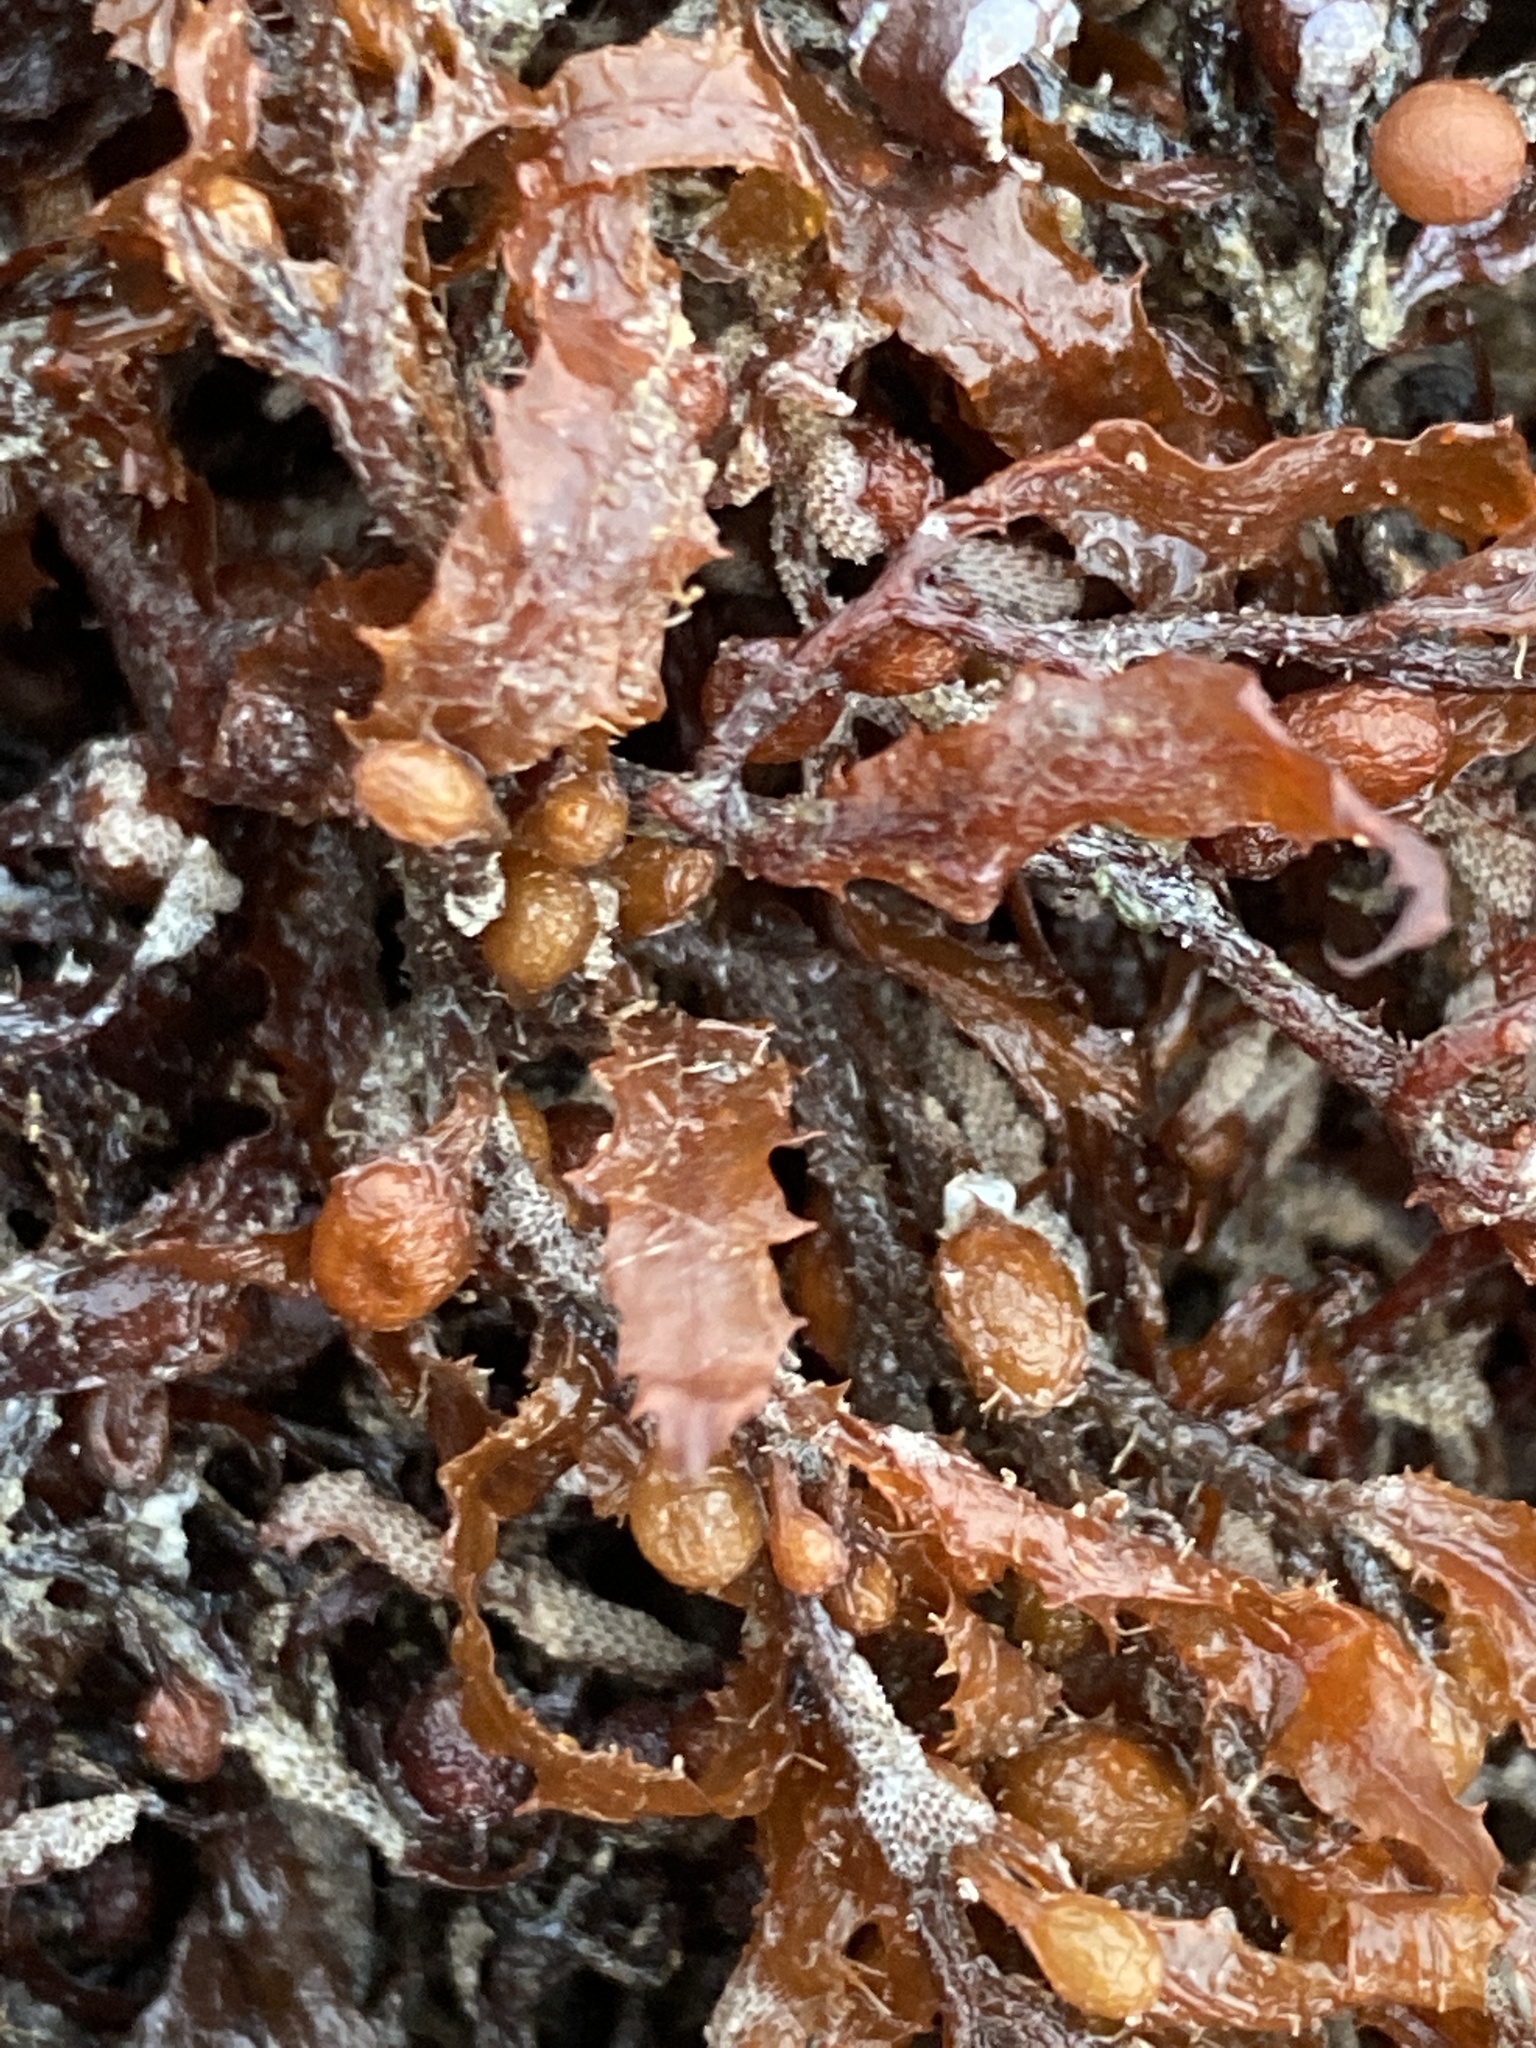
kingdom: Chromista
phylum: Ochrophyta
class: Phaeophyceae
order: Fucales
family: Sargassaceae
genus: Sargassum
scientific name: Sargassum fluitans
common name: Sargassum seaweed
